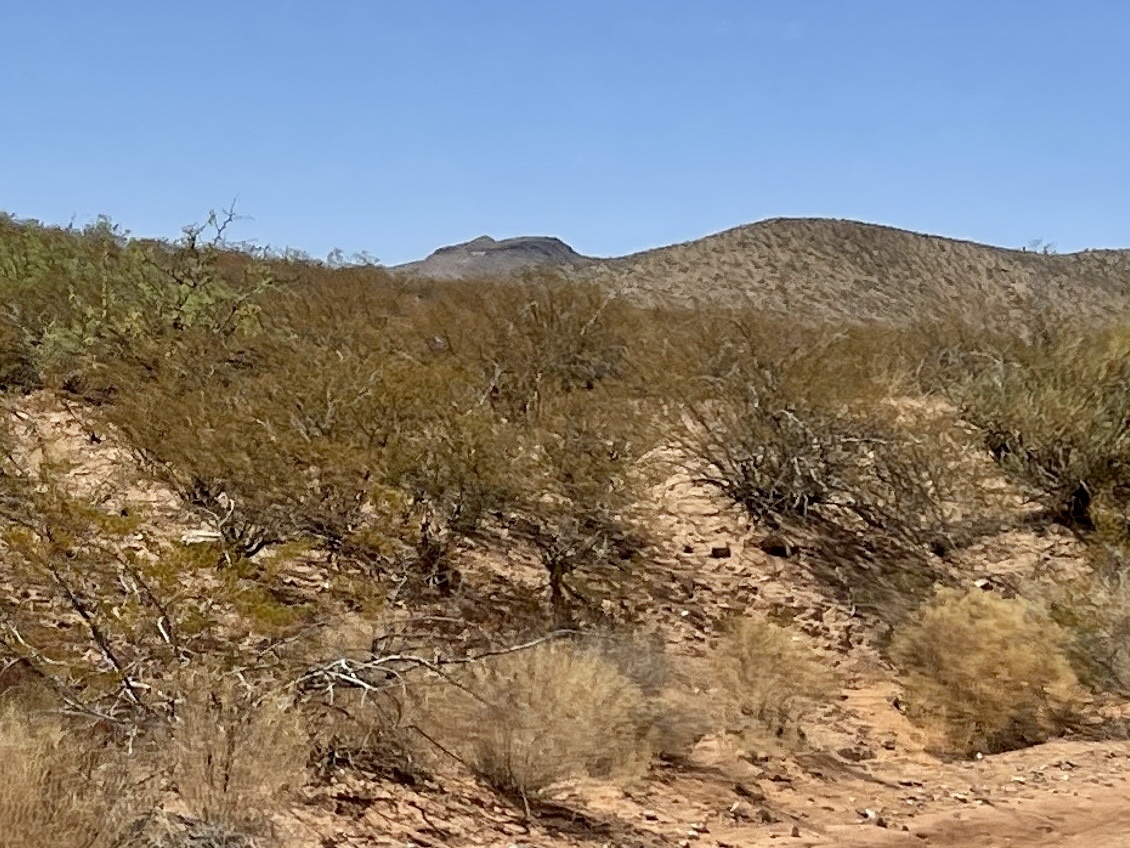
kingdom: Plantae
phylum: Tracheophyta
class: Magnoliopsida
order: Zygophyllales
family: Zygophyllaceae
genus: Larrea
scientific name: Larrea tridentata
